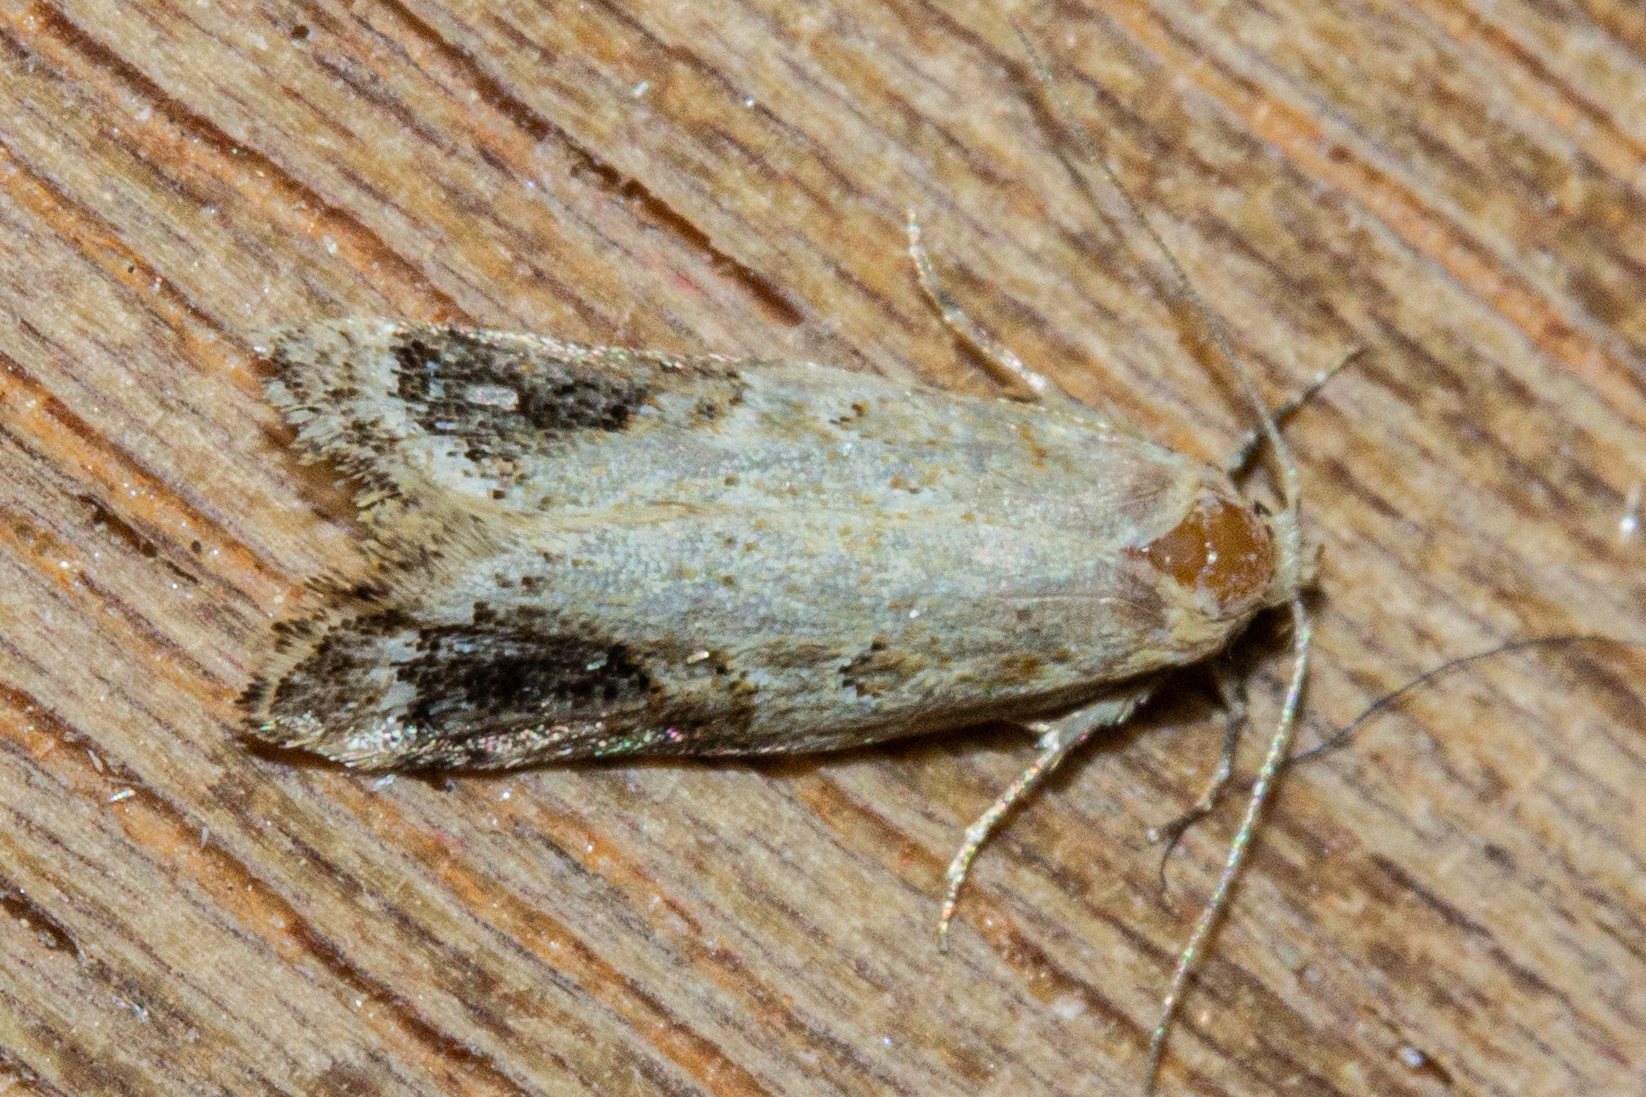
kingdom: Animalia
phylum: Arthropoda
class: Insecta
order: Lepidoptera
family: Oecophoridae
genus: Trachypepla
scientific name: Trachypepla aspidephora
